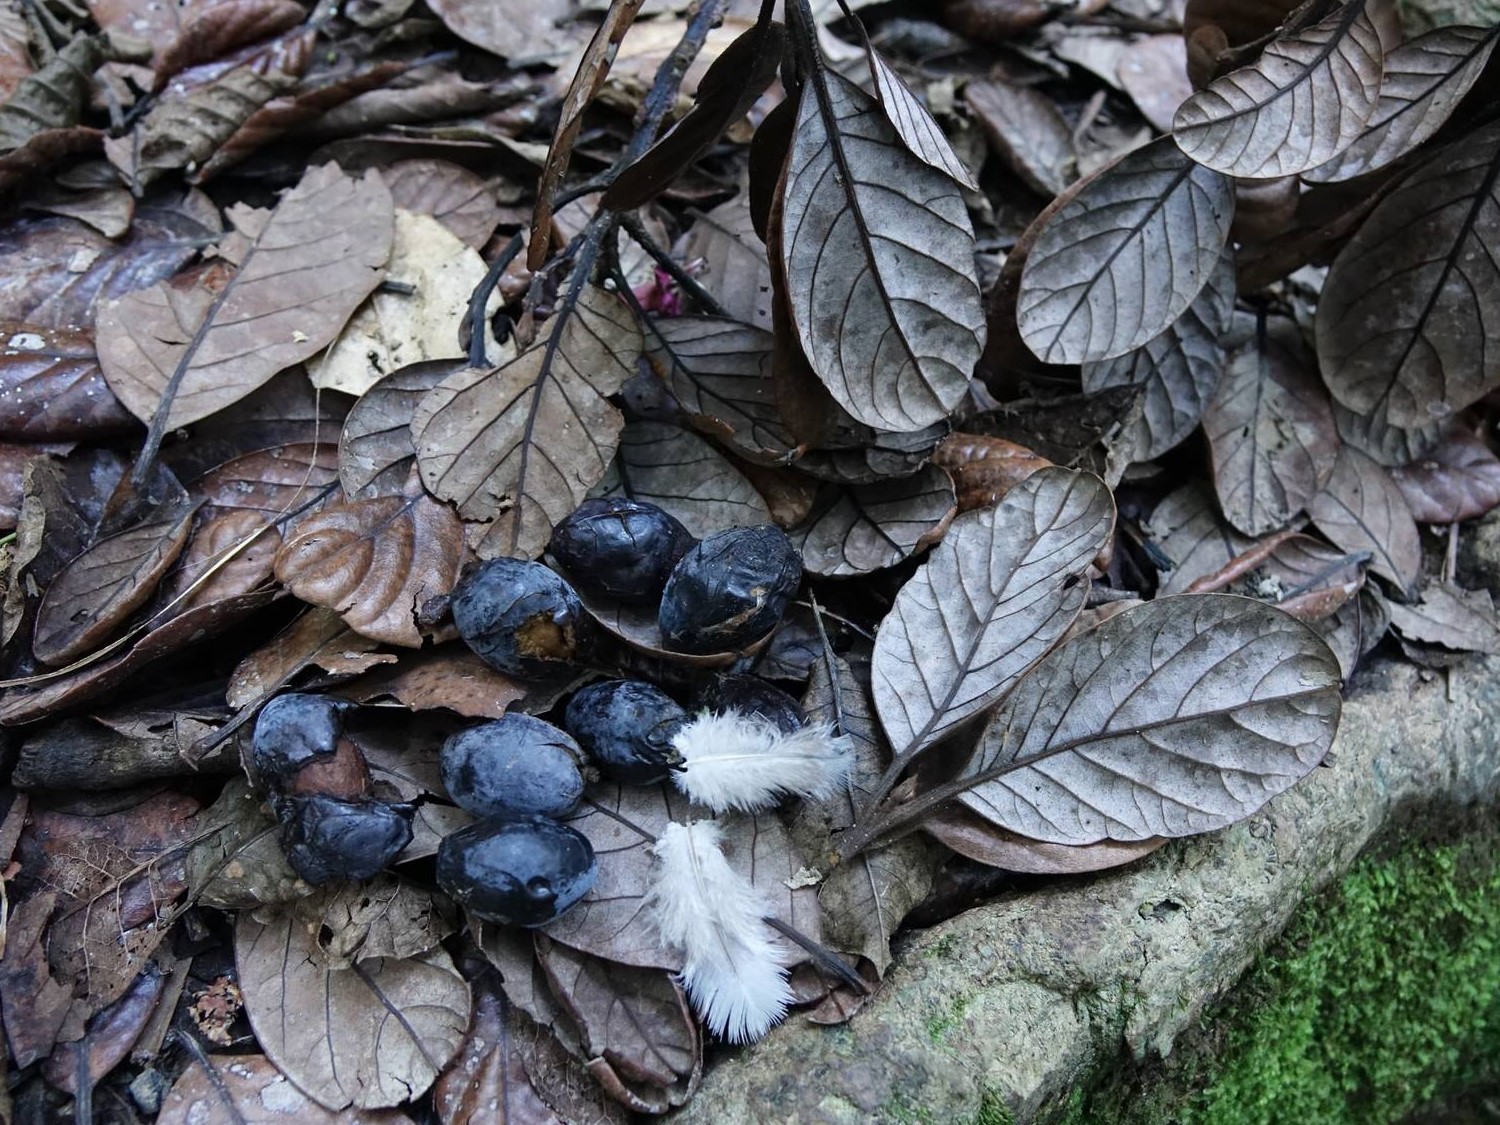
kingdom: Plantae
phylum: Tracheophyta
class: Magnoliopsida
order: Laurales
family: Lauraceae
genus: Beilschmiedia
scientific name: Beilschmiedia tarairi
